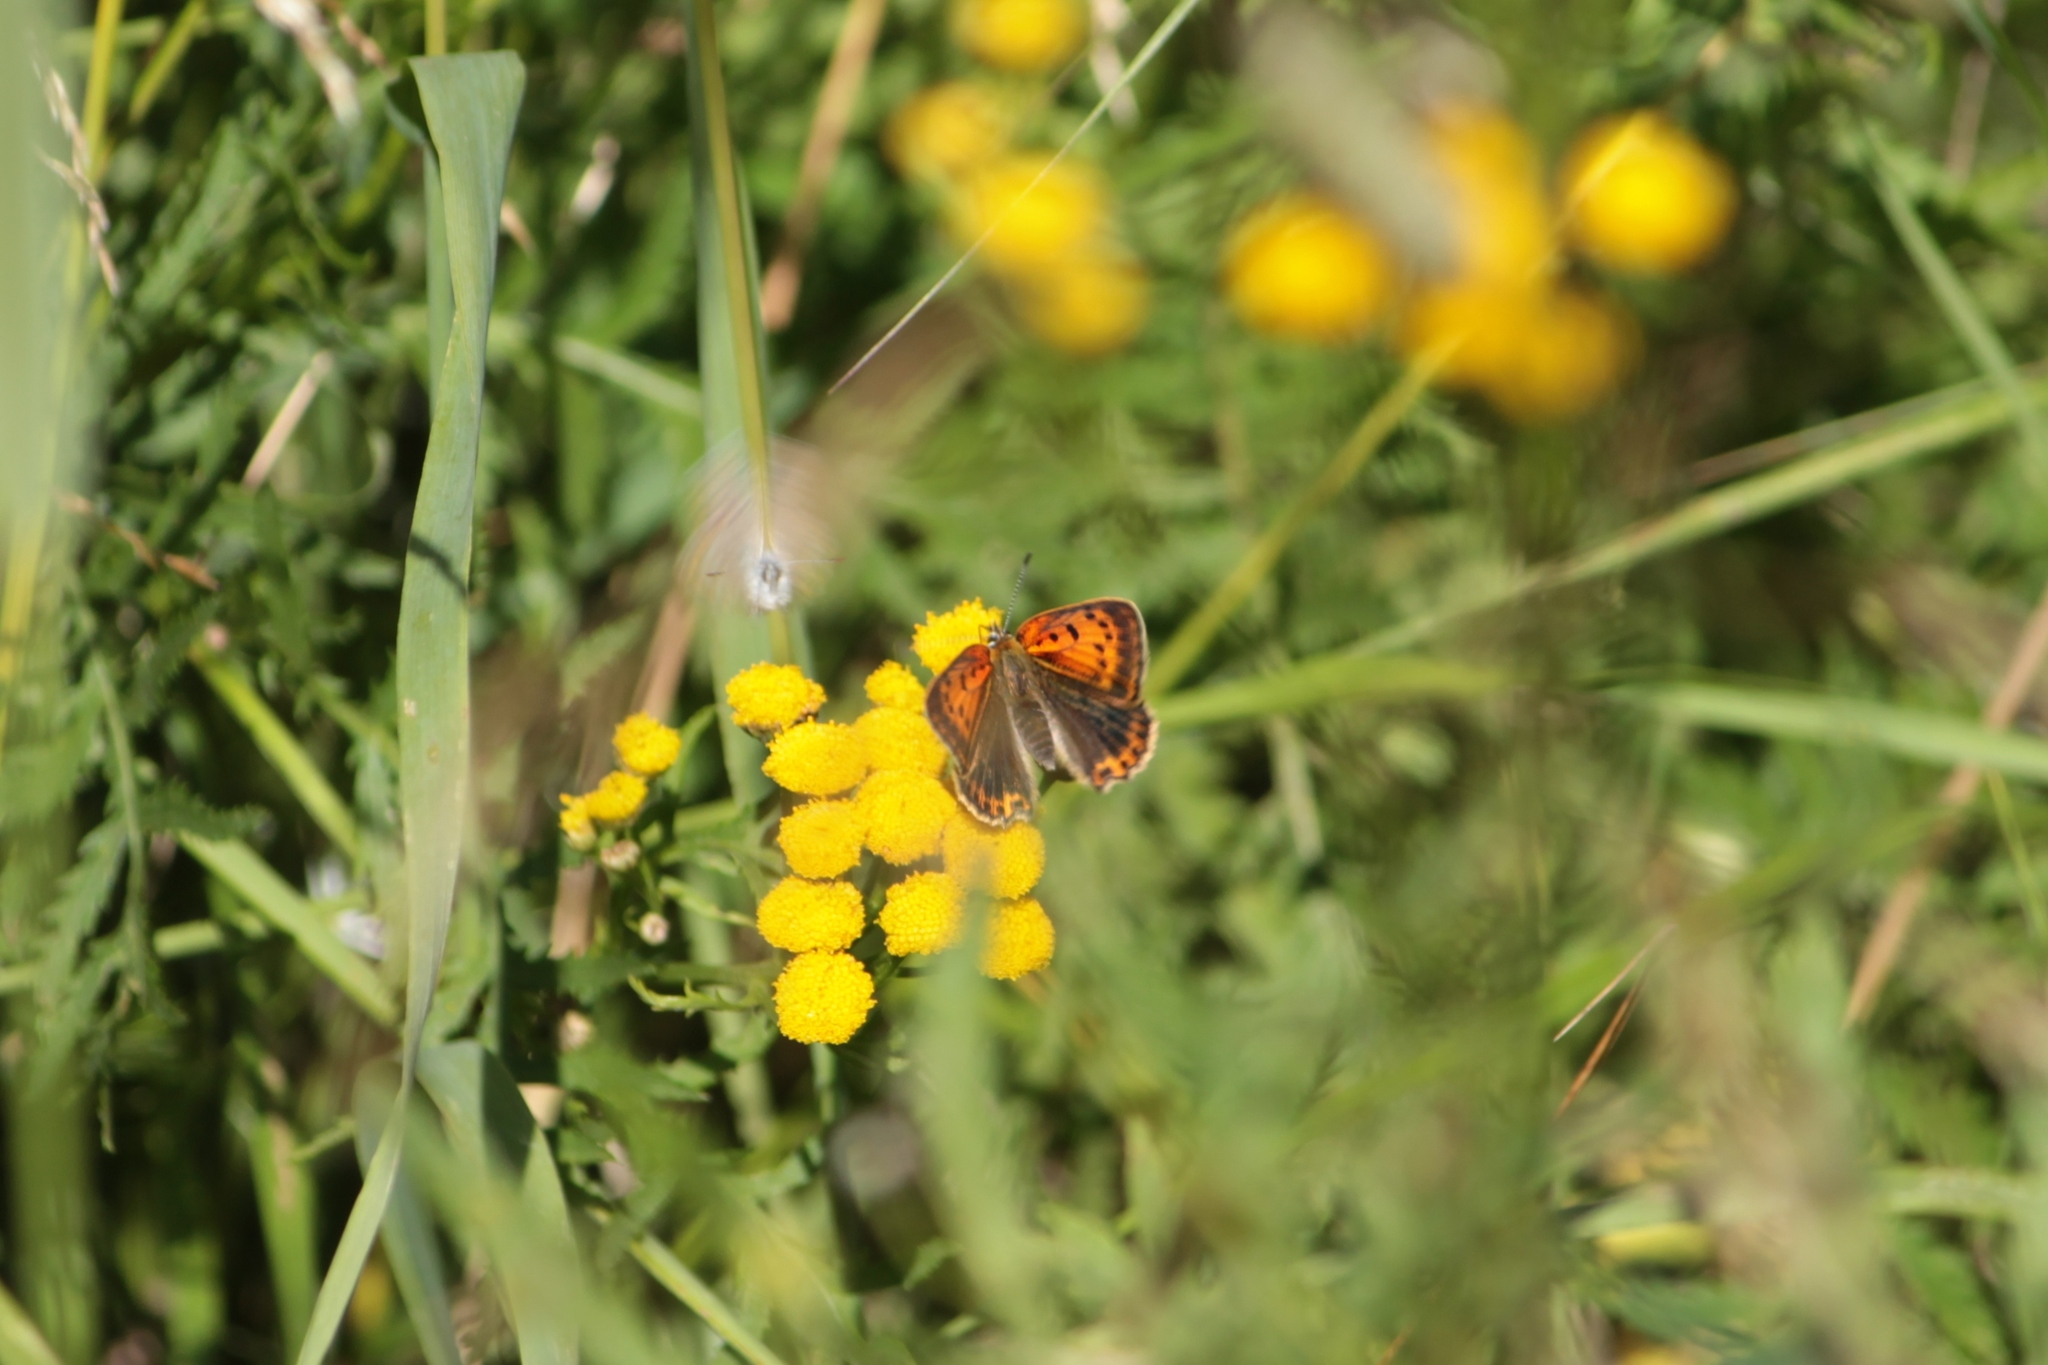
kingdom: Animalia
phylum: Arthropoda
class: Insecta
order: Lepidoptera
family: Lycaenidae
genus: Lycaena
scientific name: Lycaena virgaureae
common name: Scarce copper
